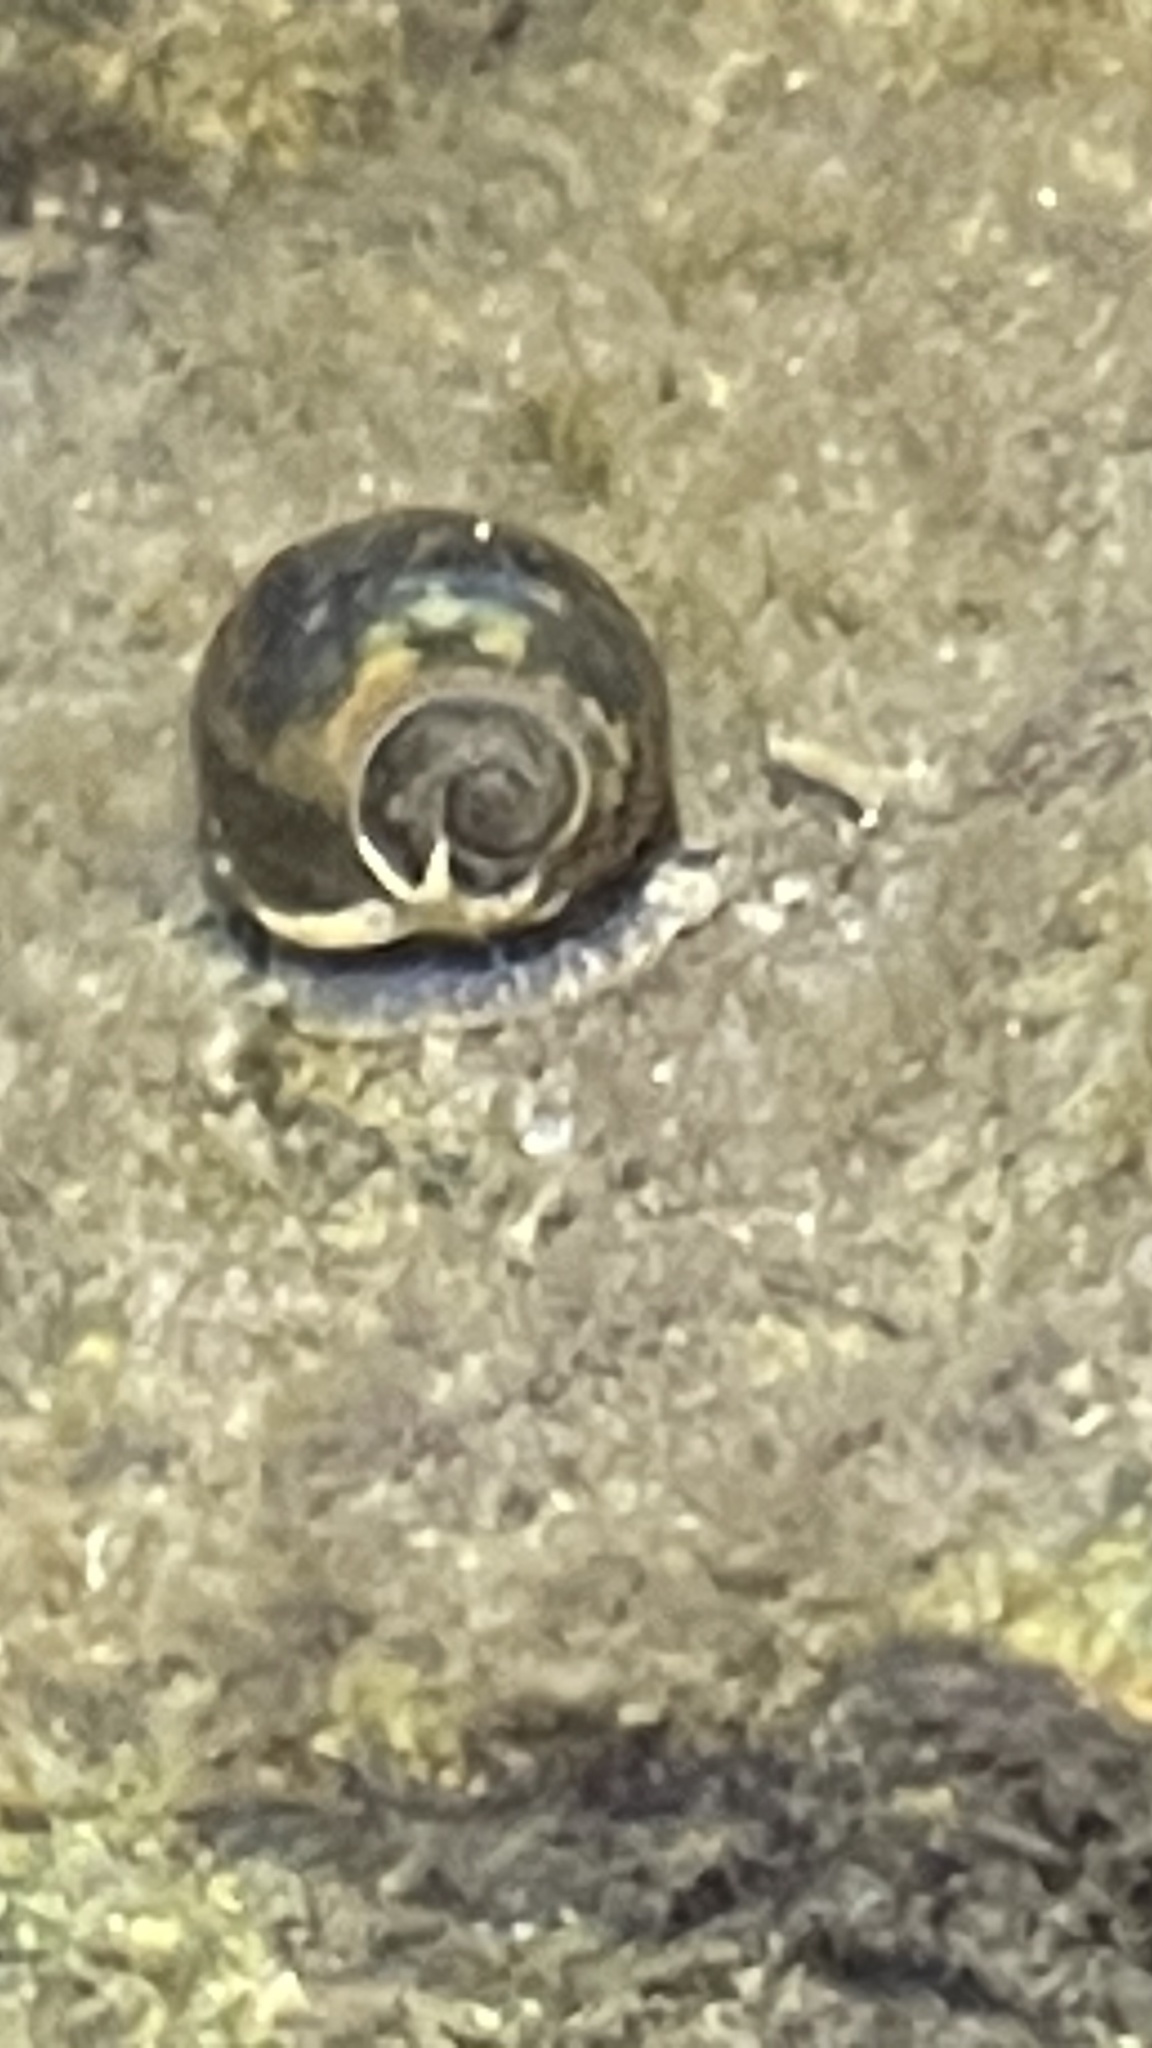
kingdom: Animalia
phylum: Mollusca
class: Gastropoda
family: Physidae
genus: Physella
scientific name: Physella acuta
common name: European physa
